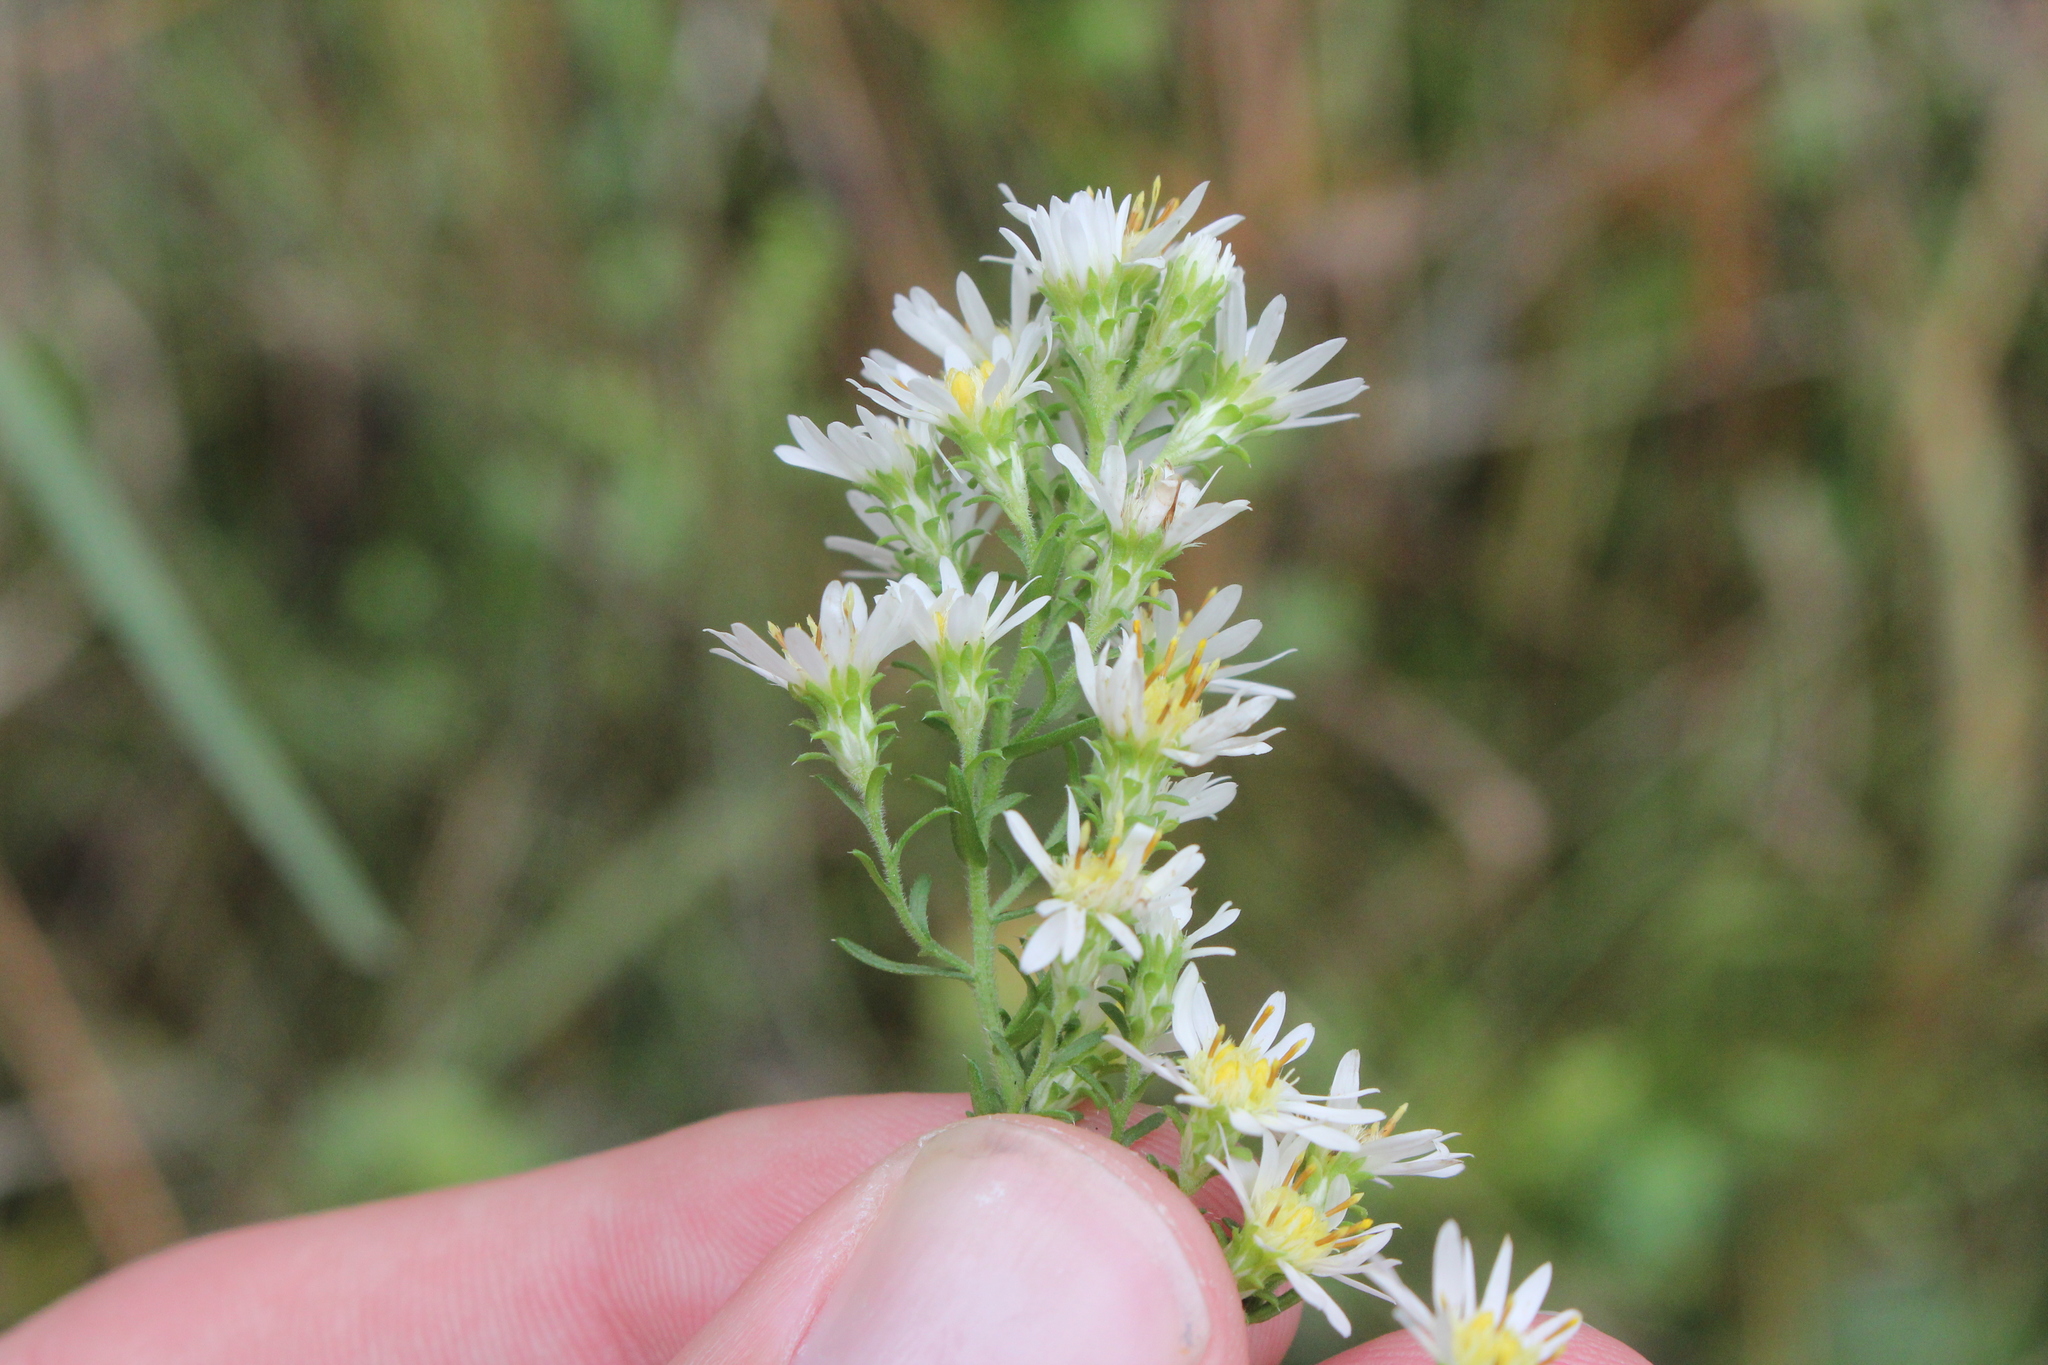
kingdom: Plantae
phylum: Tracheophyta
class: Magnoliopsida
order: Asterales
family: Asteraceae
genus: Symphyotrichum
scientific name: Symphyotrichum ericoides
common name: Heath aster
